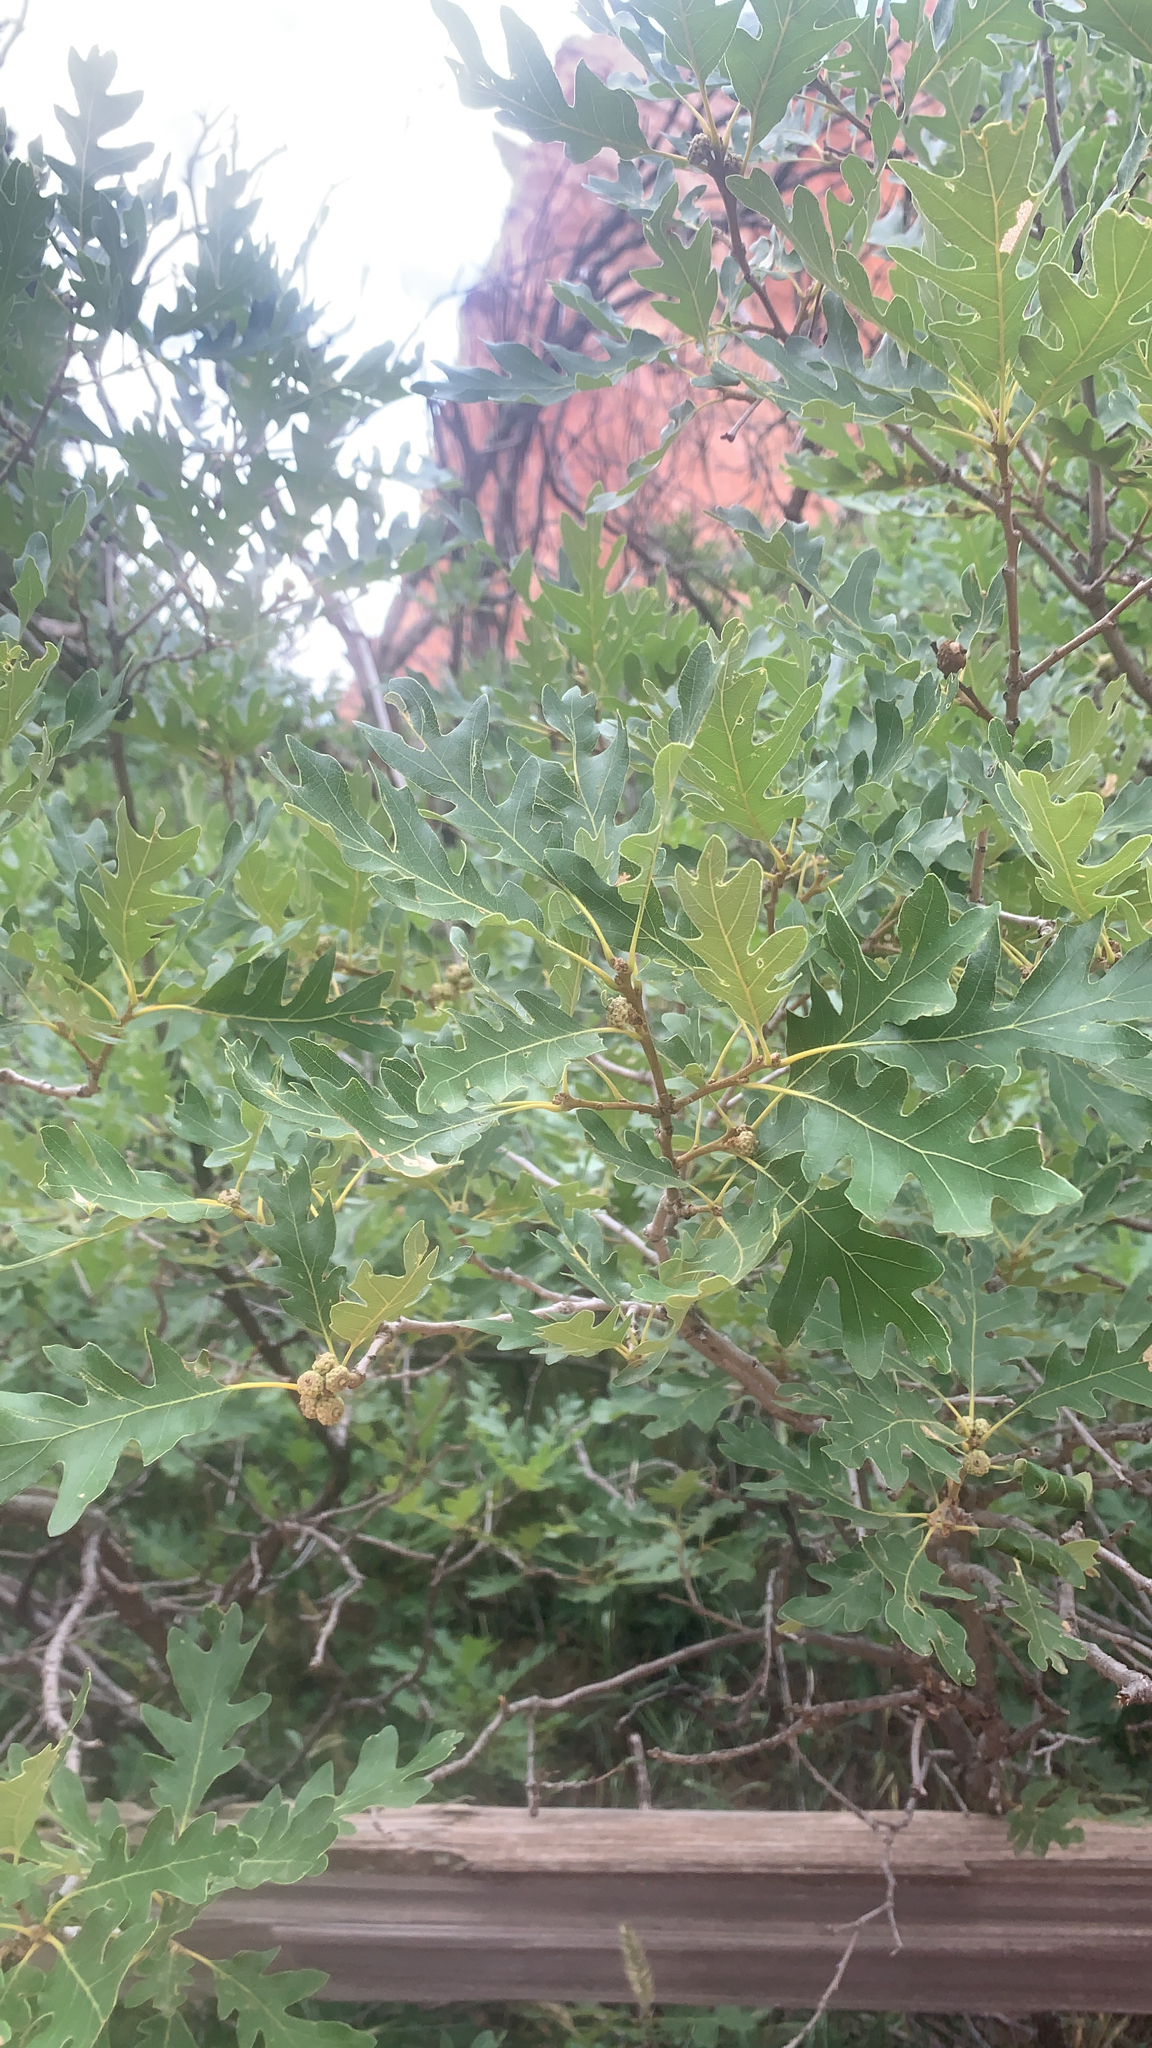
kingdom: Plantae
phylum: Tracheophyta
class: Magnoliopsida
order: Fagales
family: Fagaceae
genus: Quercus
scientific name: Quercus gambelii
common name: Gambel oak
